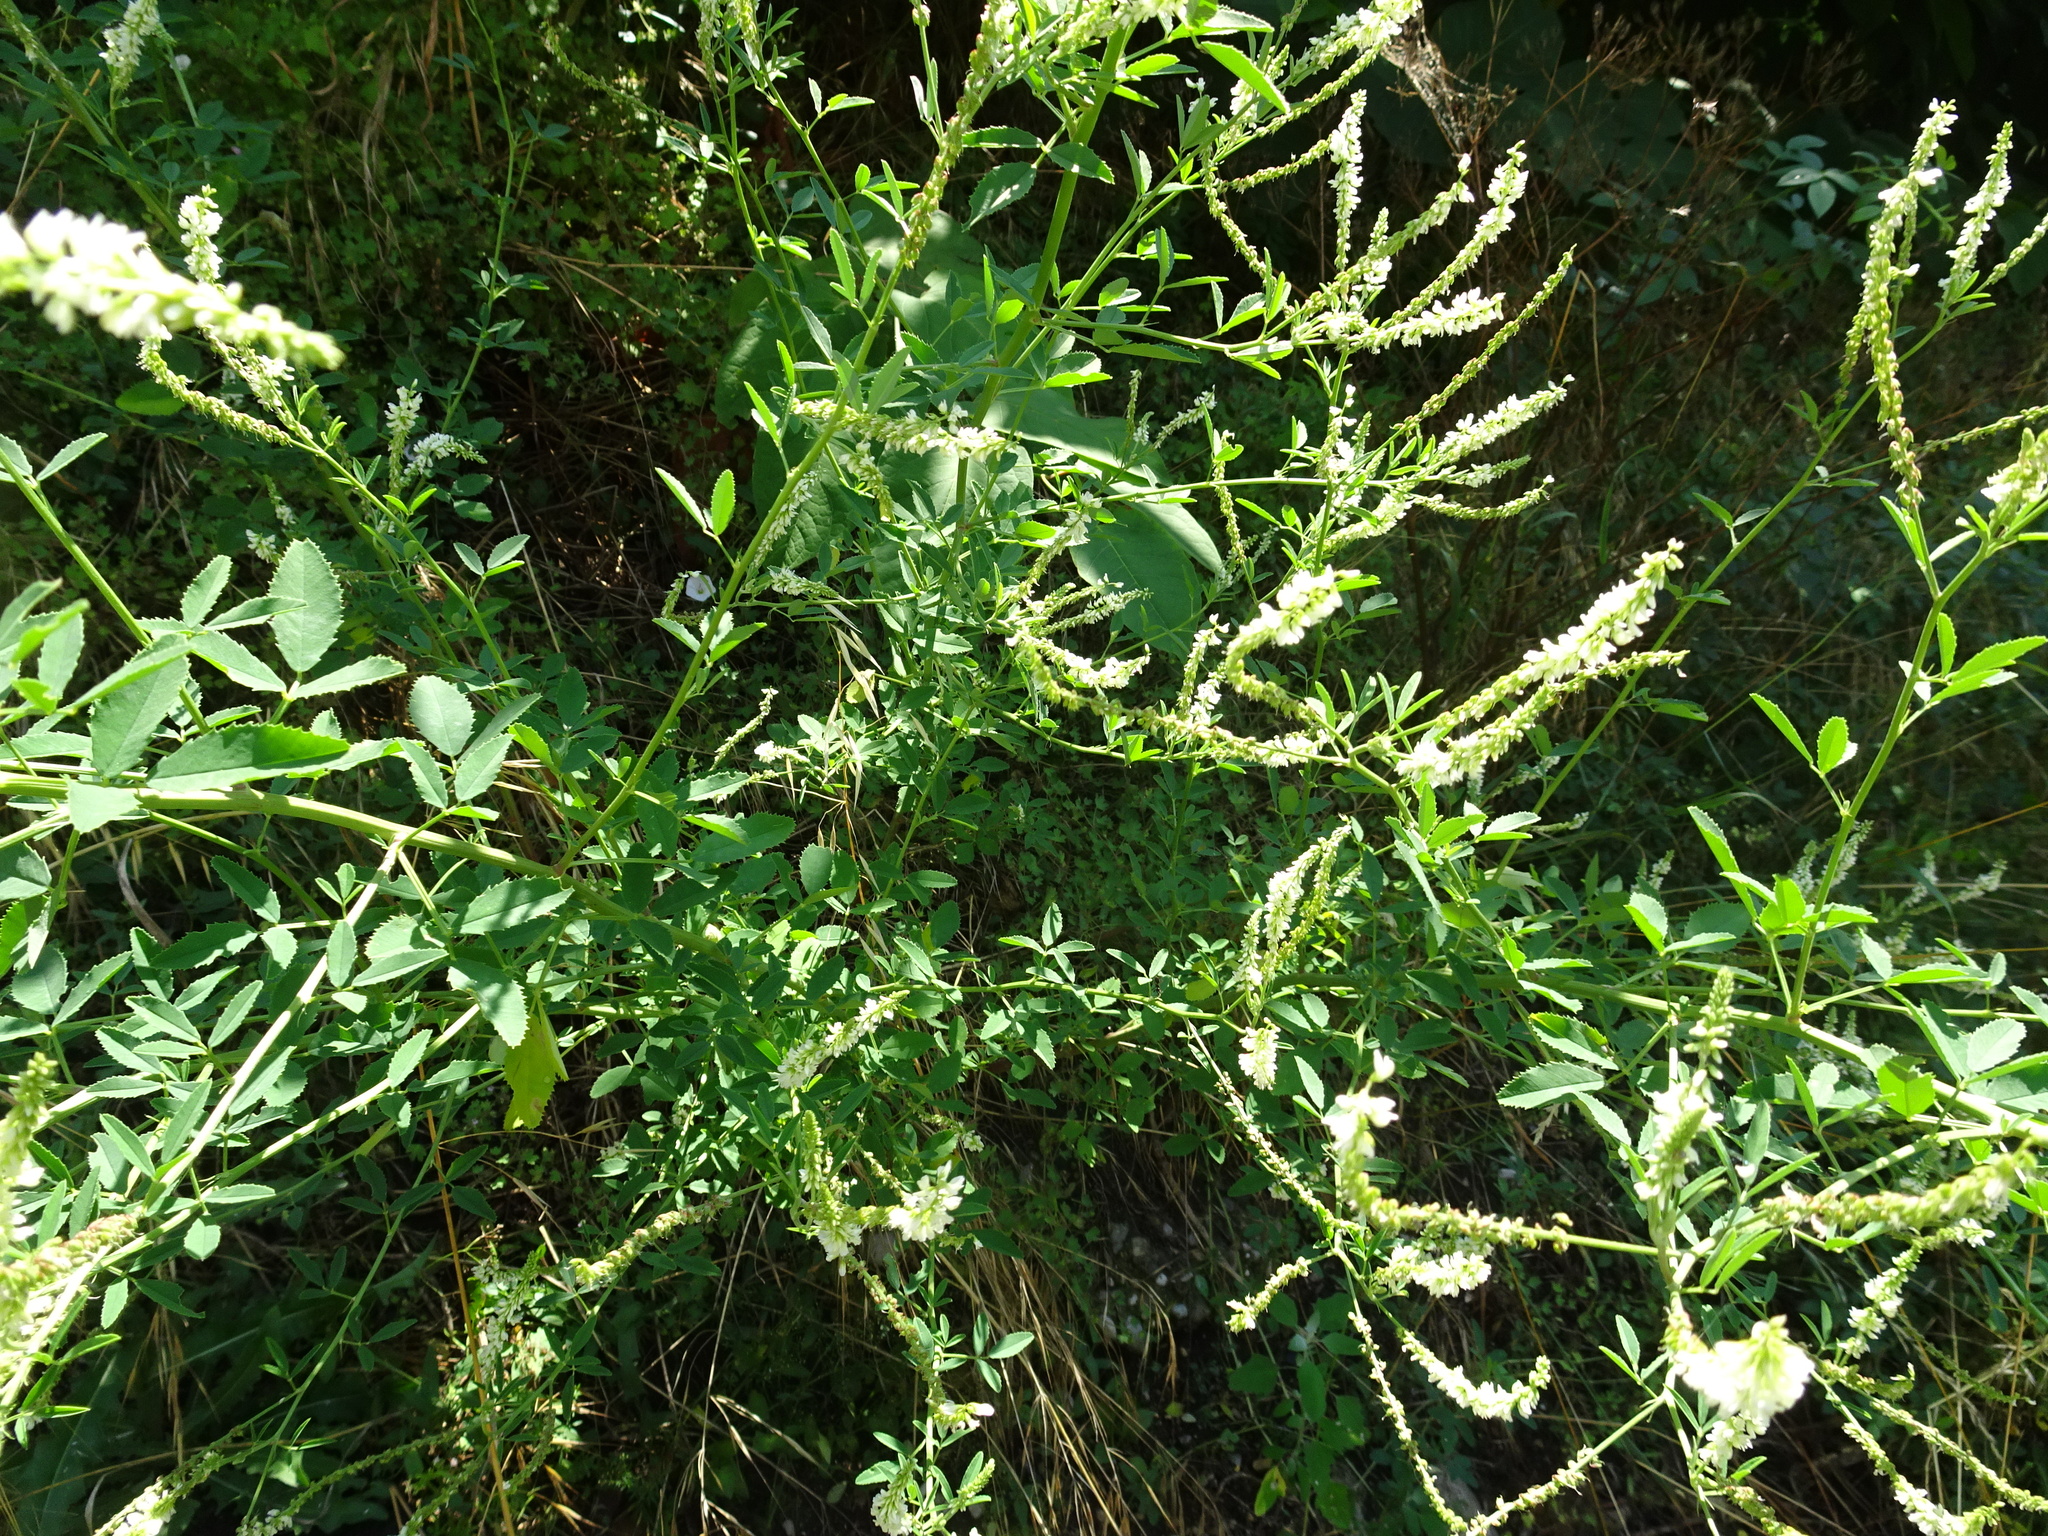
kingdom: Plantae
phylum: Tracheophyta
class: Magnoliopsida
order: Fabales
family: Fabaceae
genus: Melilotus
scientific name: Melilotus albus
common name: White melilot
